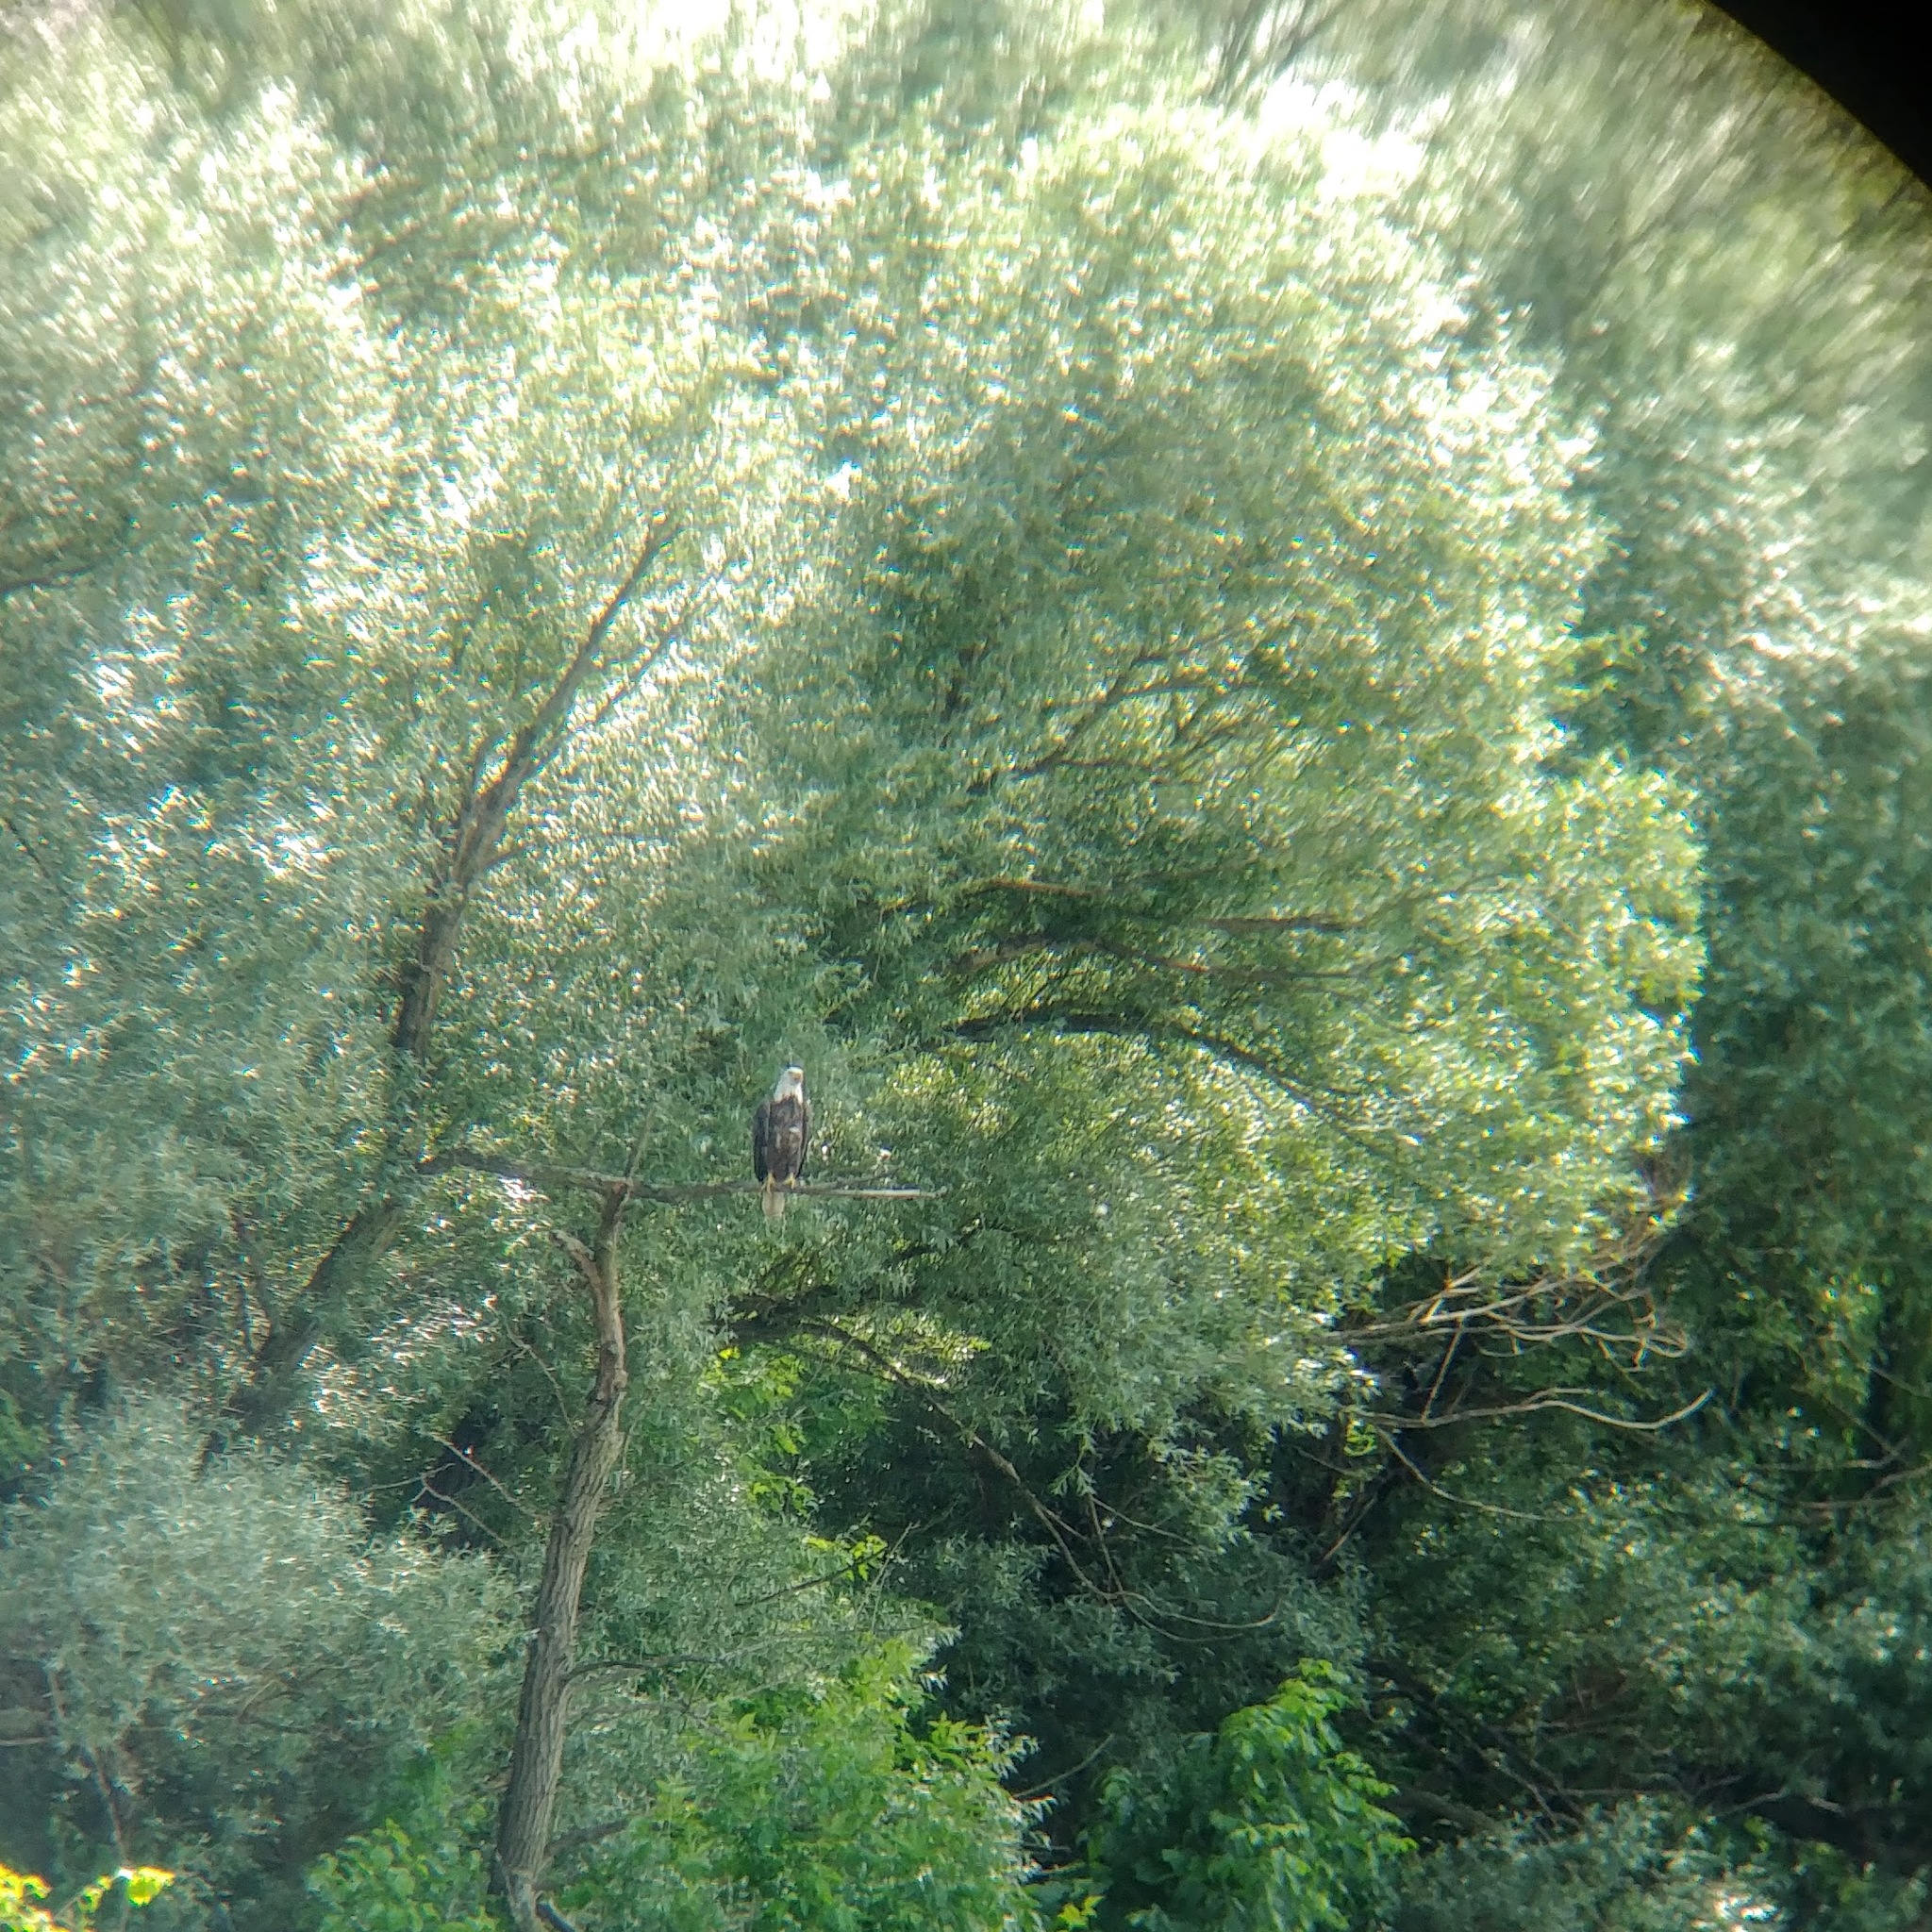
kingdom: Animalia
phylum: Chordata
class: Aves
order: Accipitriformes
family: Accipitridae
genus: Haliaeetus
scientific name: Haliaeetus leucocephalus
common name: Bald eagle
